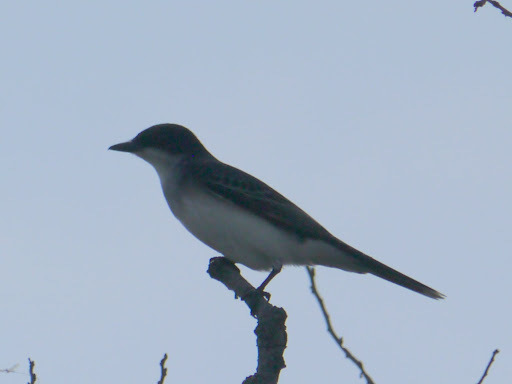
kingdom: Animalia
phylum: Chordata
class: Aves
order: Passeriformes
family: Tyrannidae
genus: Tyrannus
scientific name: Tyrannus tyrannus
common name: Eastern kingbird
